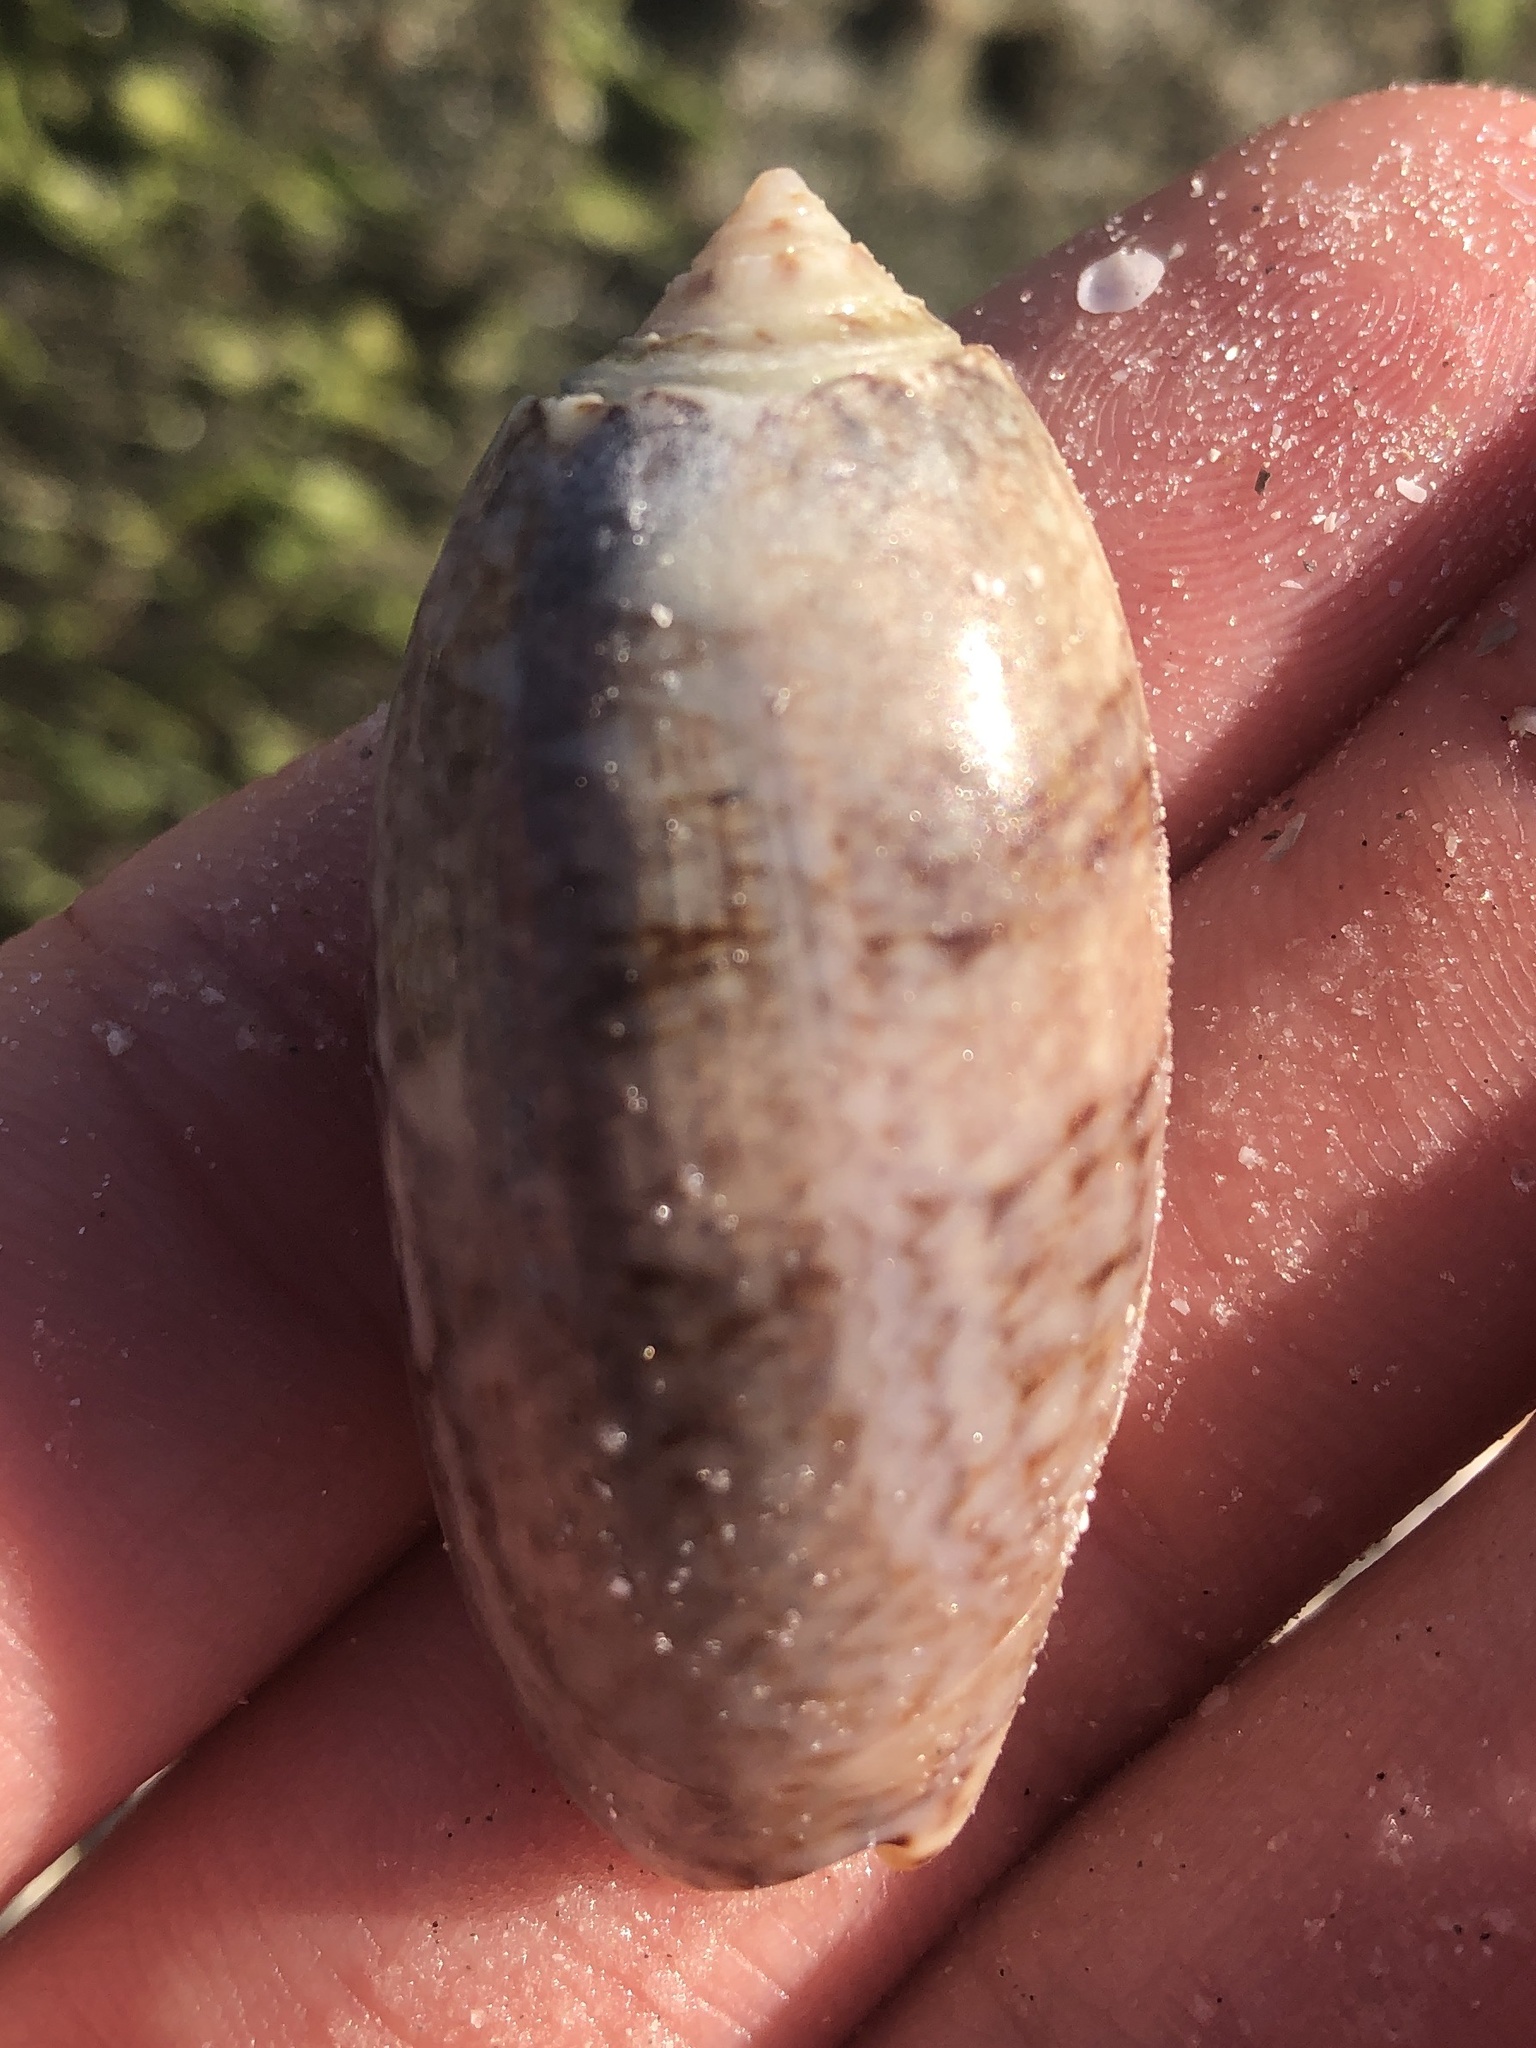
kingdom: Animalia
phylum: Mollusca
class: Gastropoda
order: Neogastropoda
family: Olividae
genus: Oliva
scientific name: Oliva sayana
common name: Lettered olive
